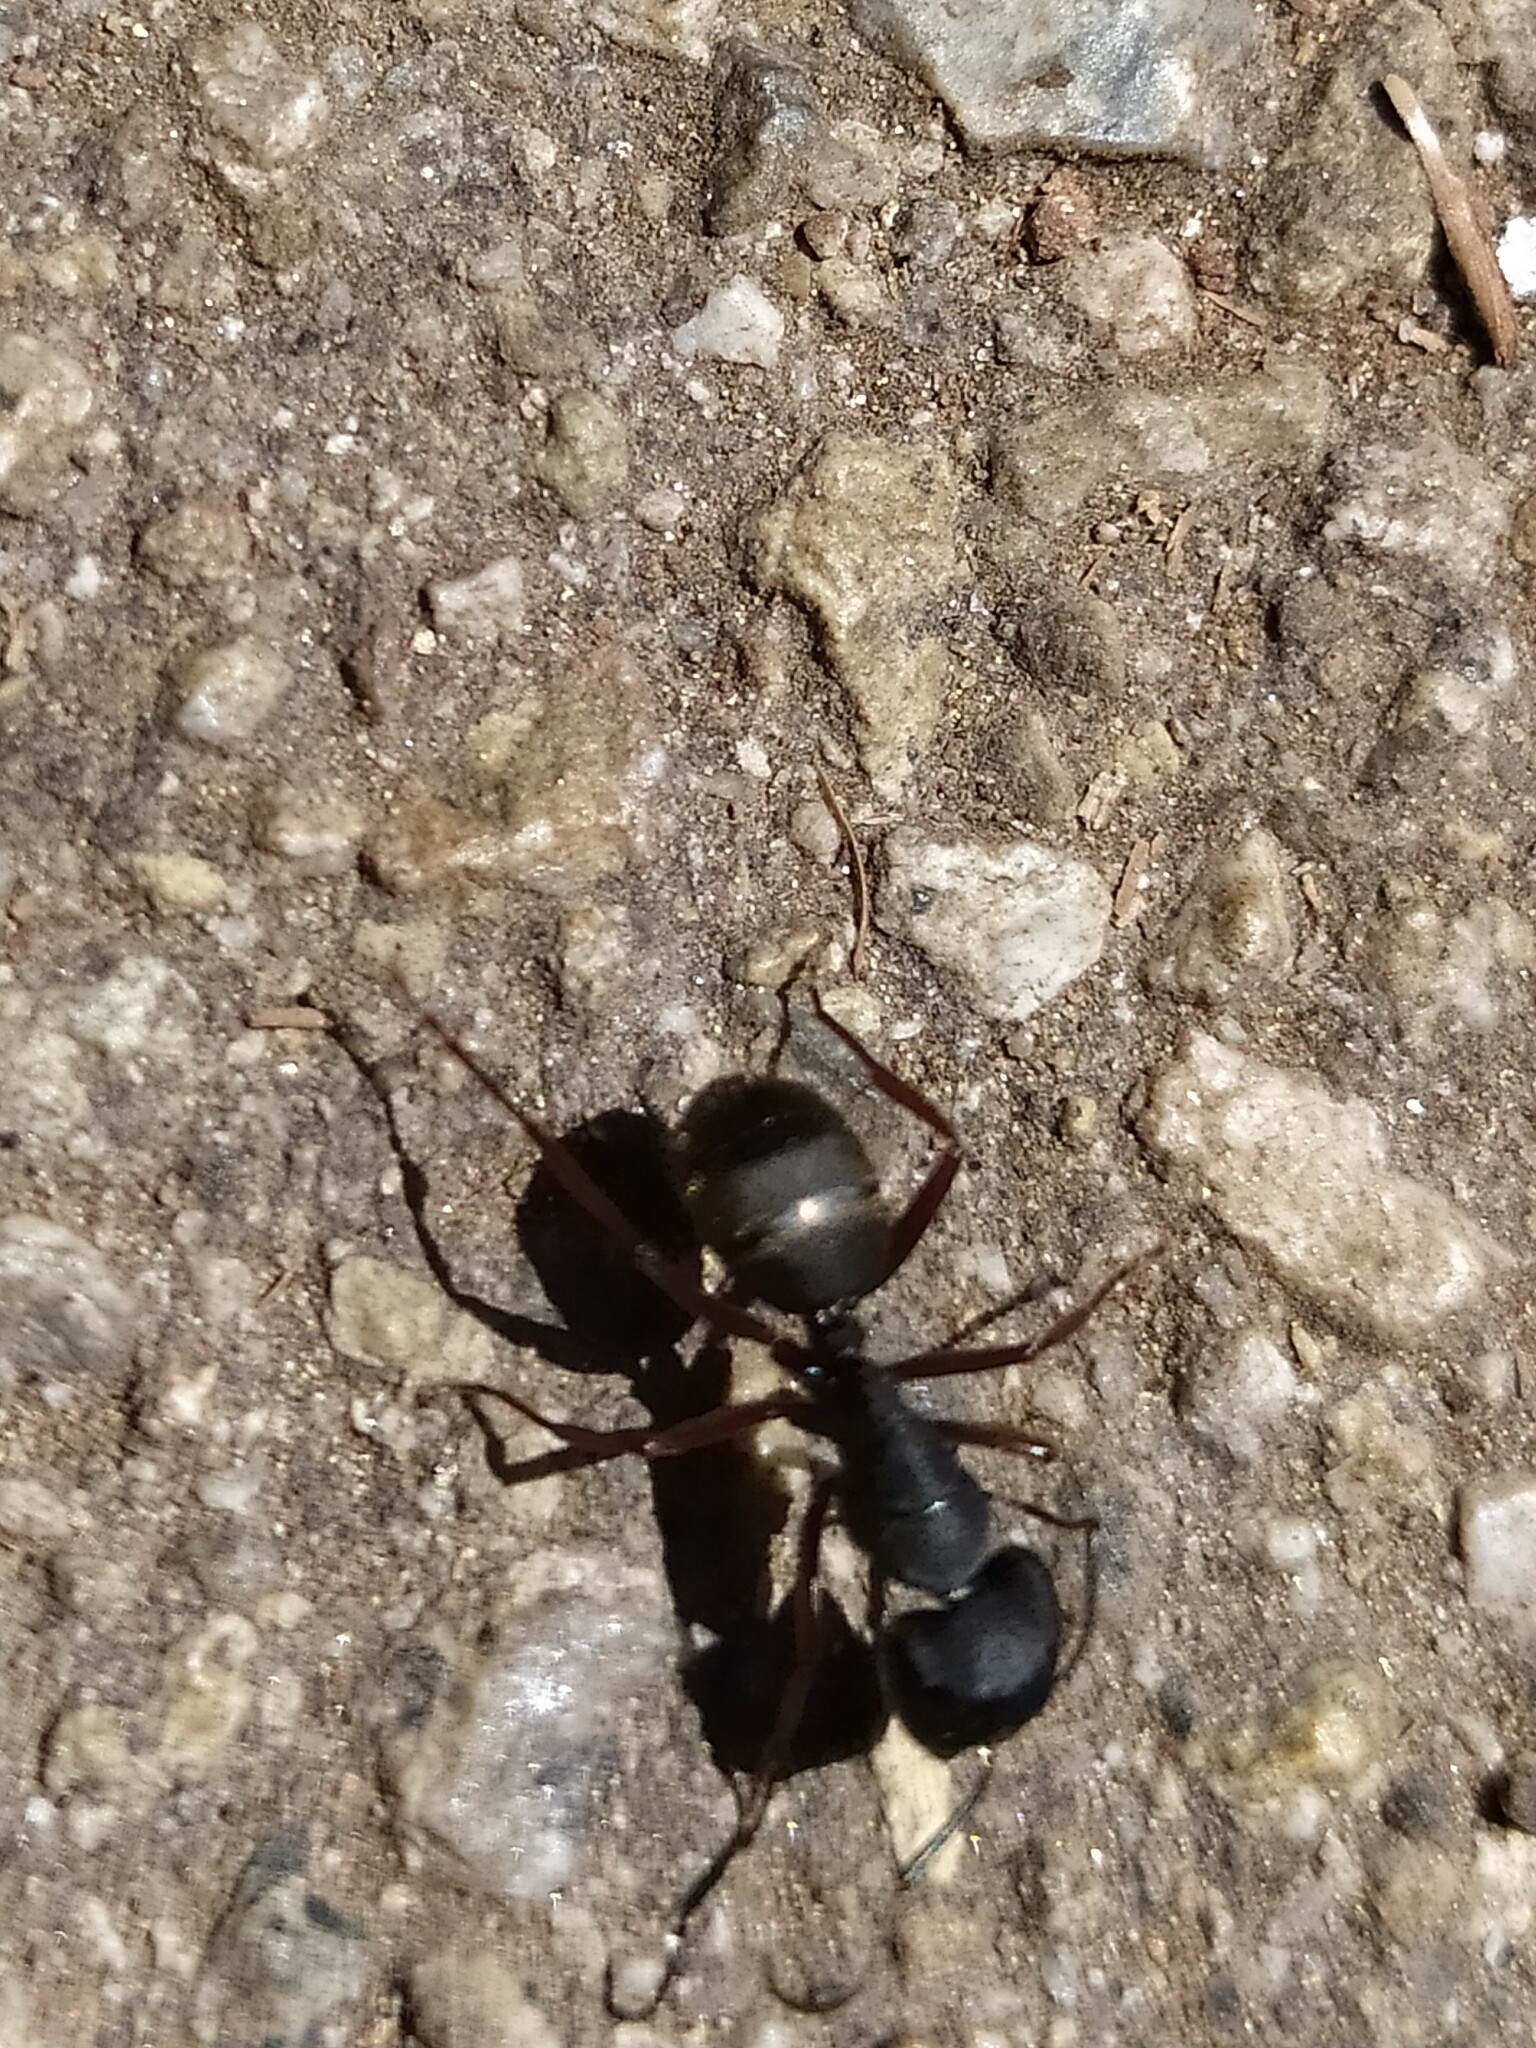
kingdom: Animalia
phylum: Arthropoda
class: Insecta
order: Hymenoptera
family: Formicidae
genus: Camponotus
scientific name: Camponotus modoc
